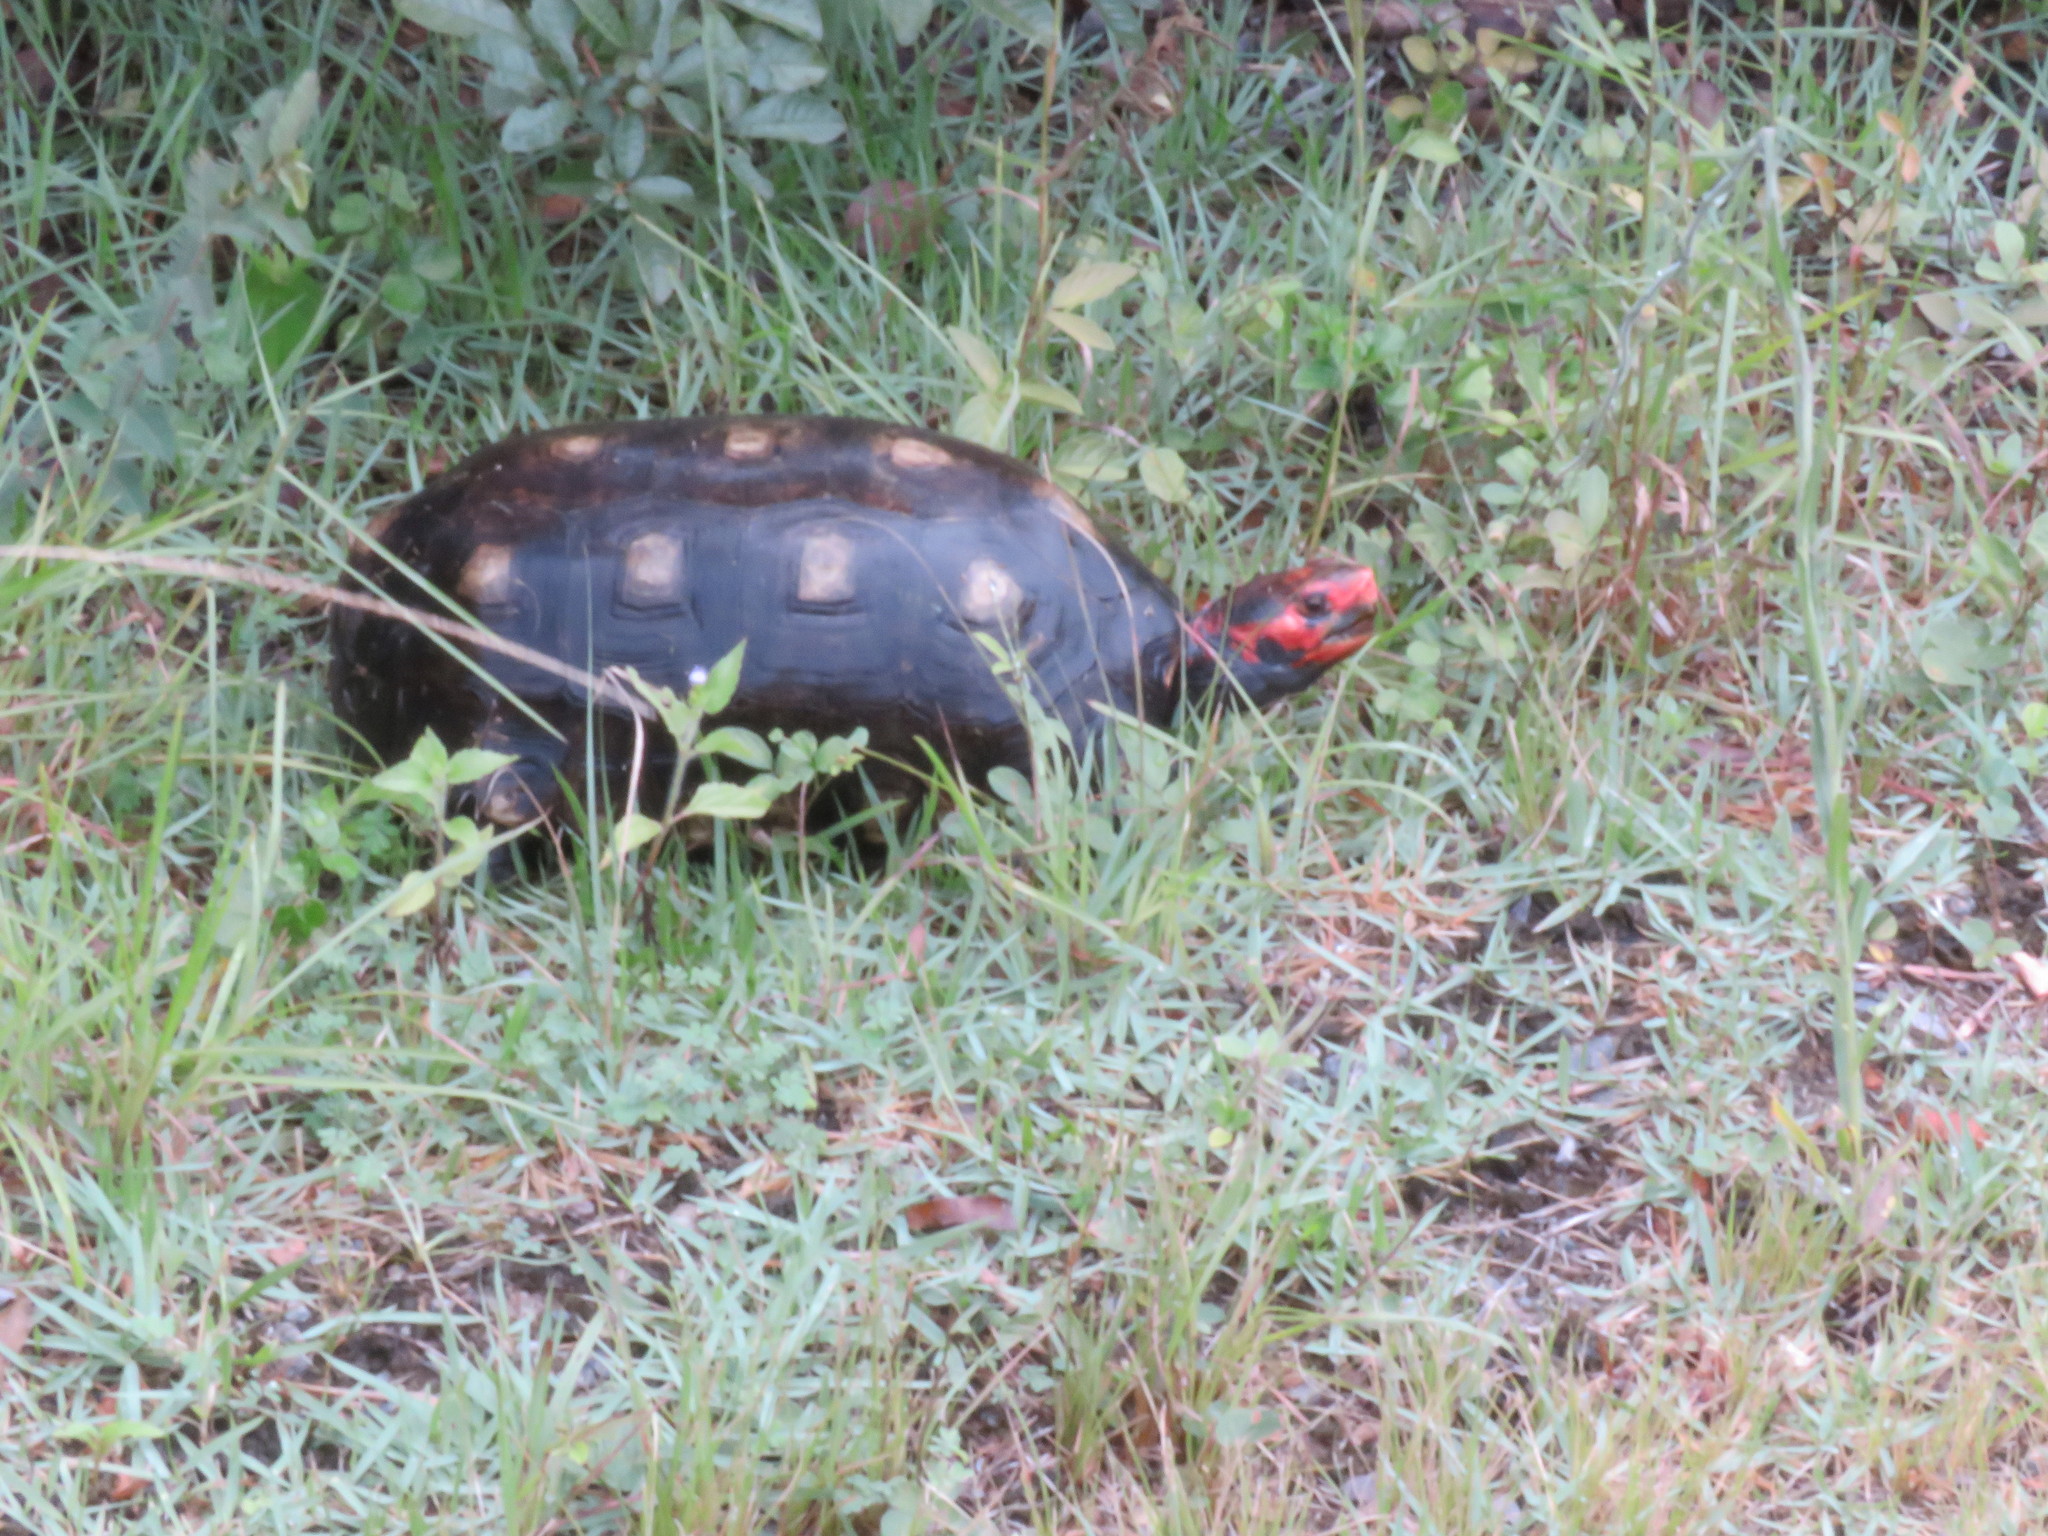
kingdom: Animalia
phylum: Chordata
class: Testudines
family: Testudinidae
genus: Chelonoidis
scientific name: Chelonoidis carbonarius
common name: Red-footed tortoise
